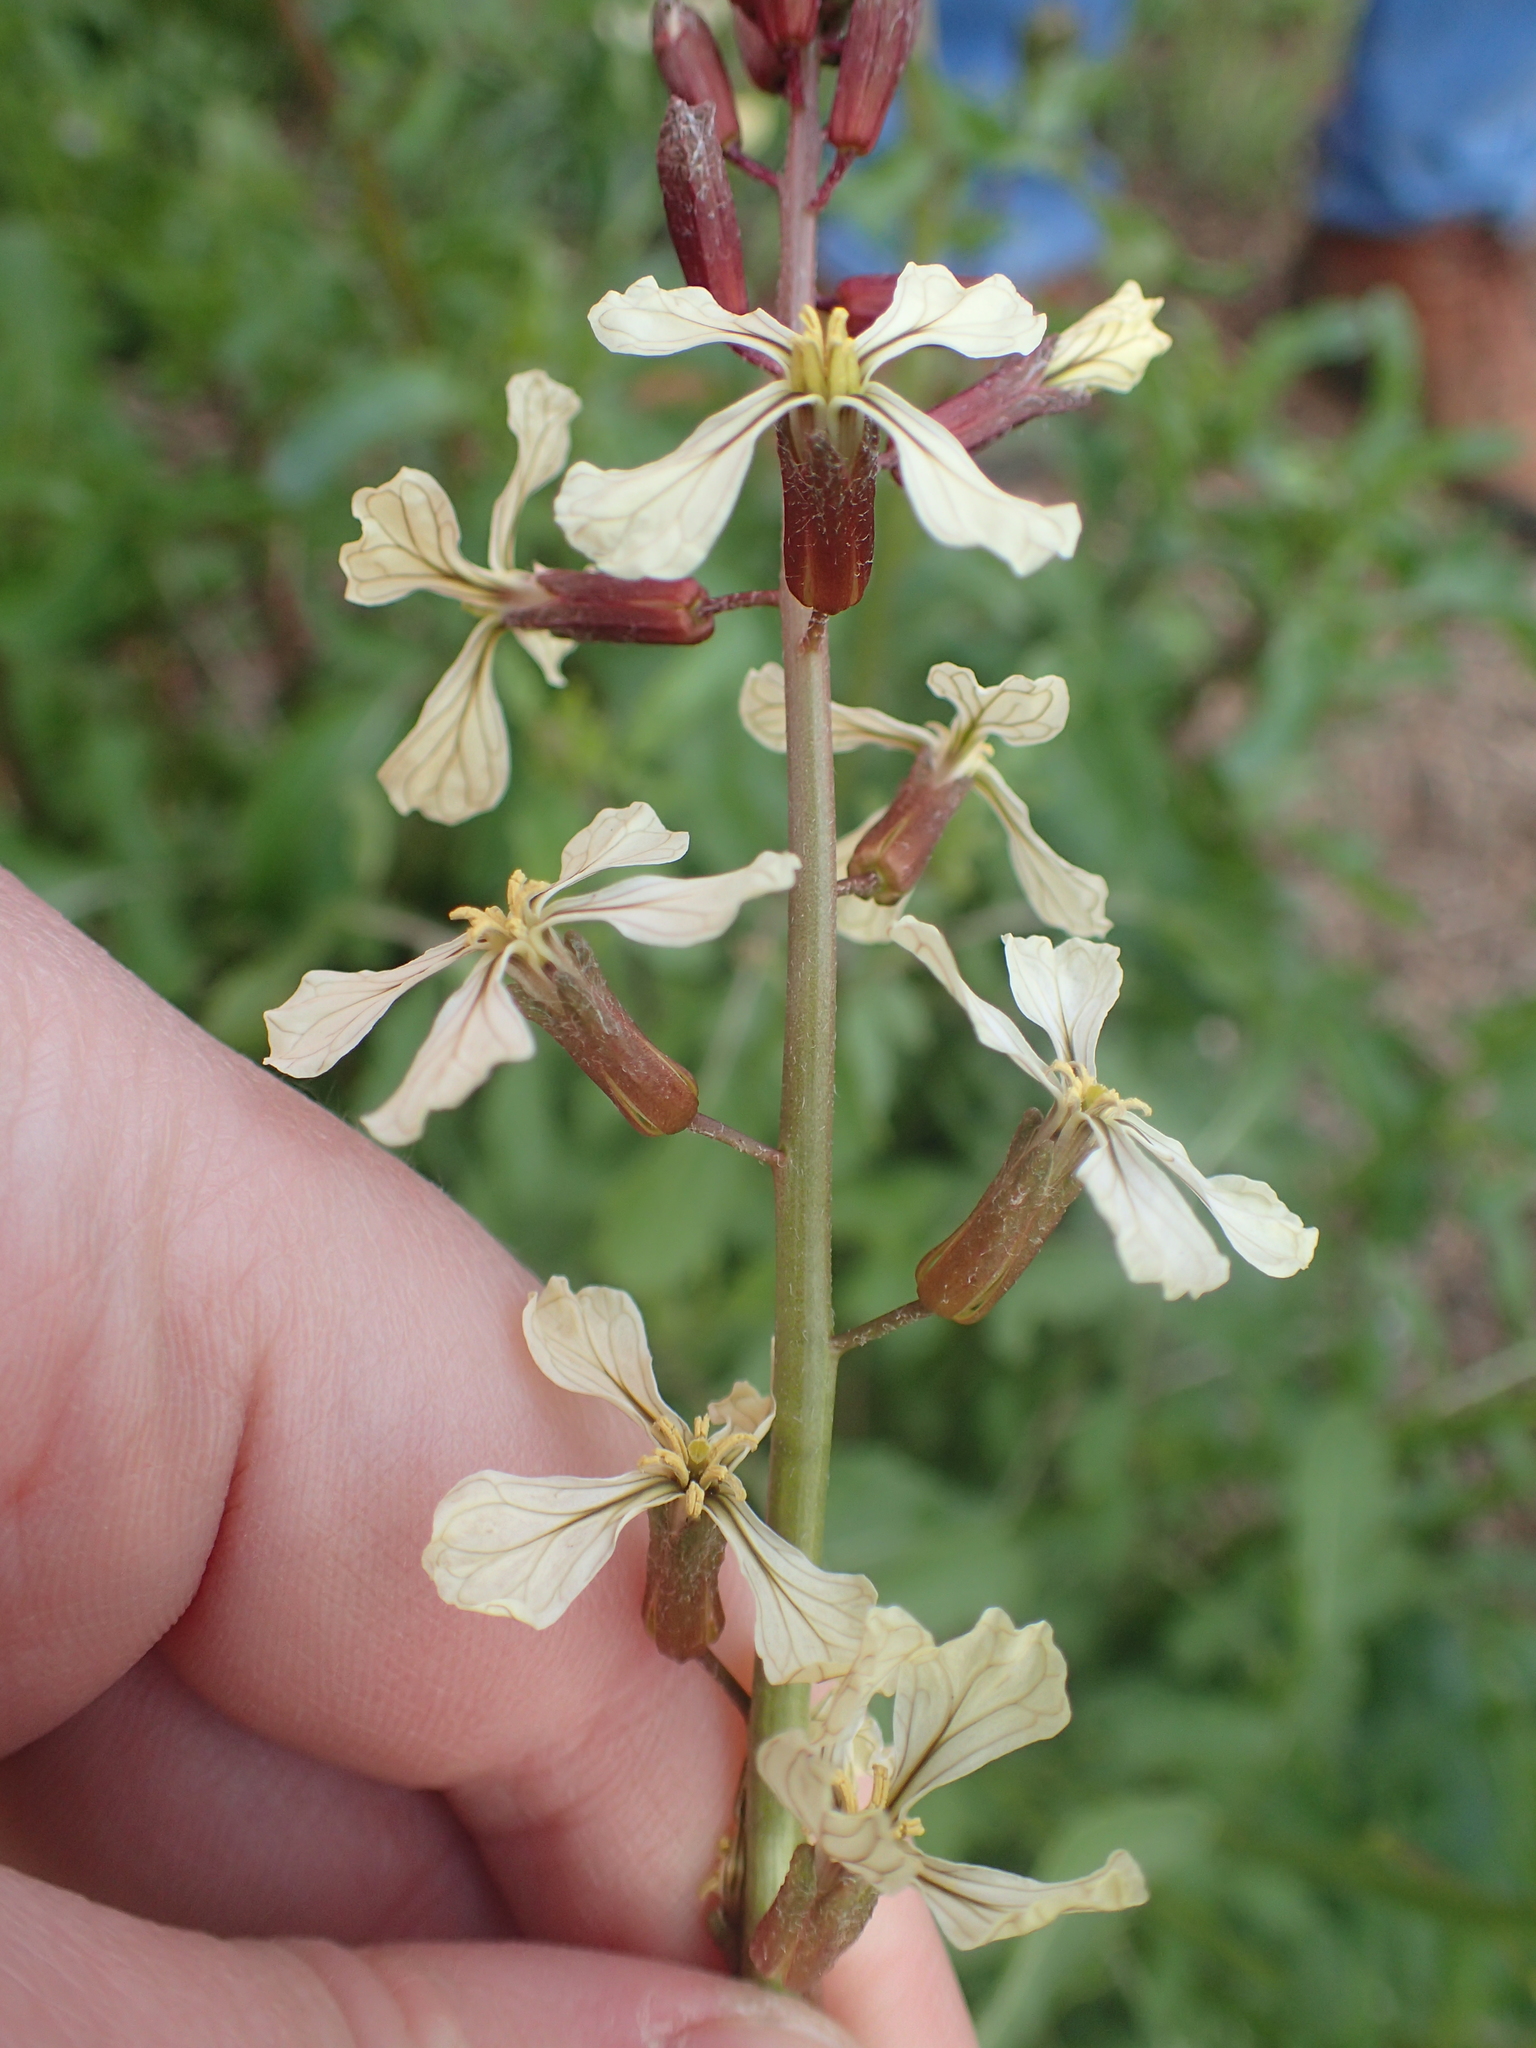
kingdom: Plantae
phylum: Tracheophyta
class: Magnoliopsida
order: Brassicales
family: Brassicaceae
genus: Eruca
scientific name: Eruca vesicaria
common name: Garden rocket
